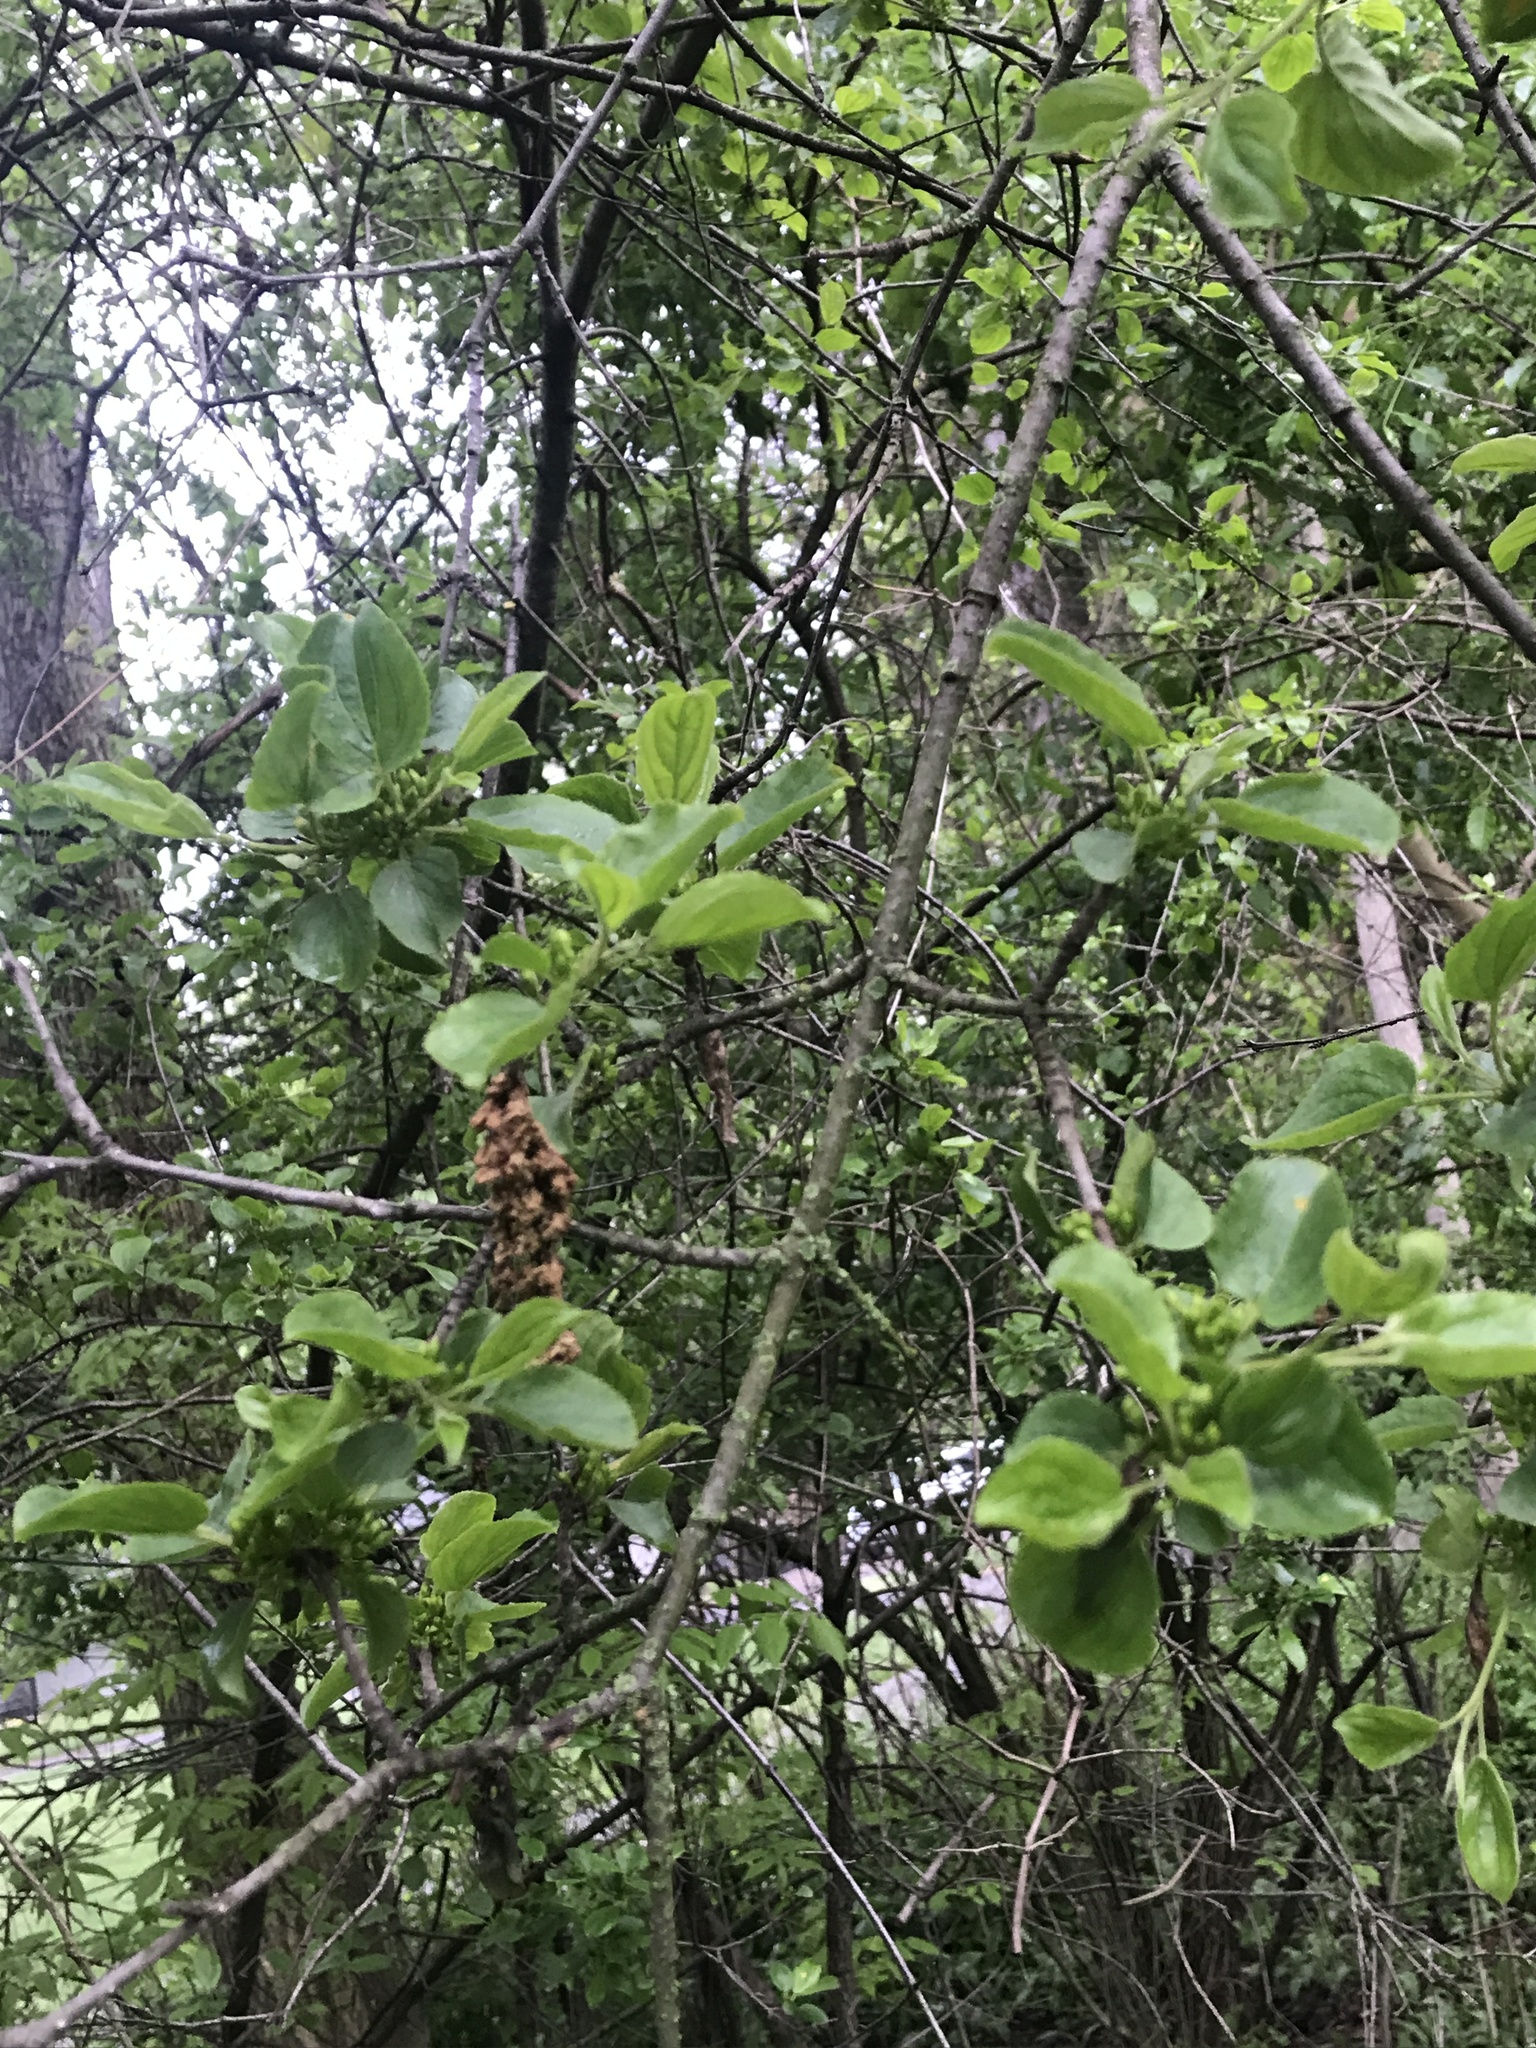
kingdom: Plantae
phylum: Tracheophyta
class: Magnoliopsida
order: Rosales
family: Rhamnaceae
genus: Rhamnus
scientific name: Rhamnus cathartica
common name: Common buckthorn
